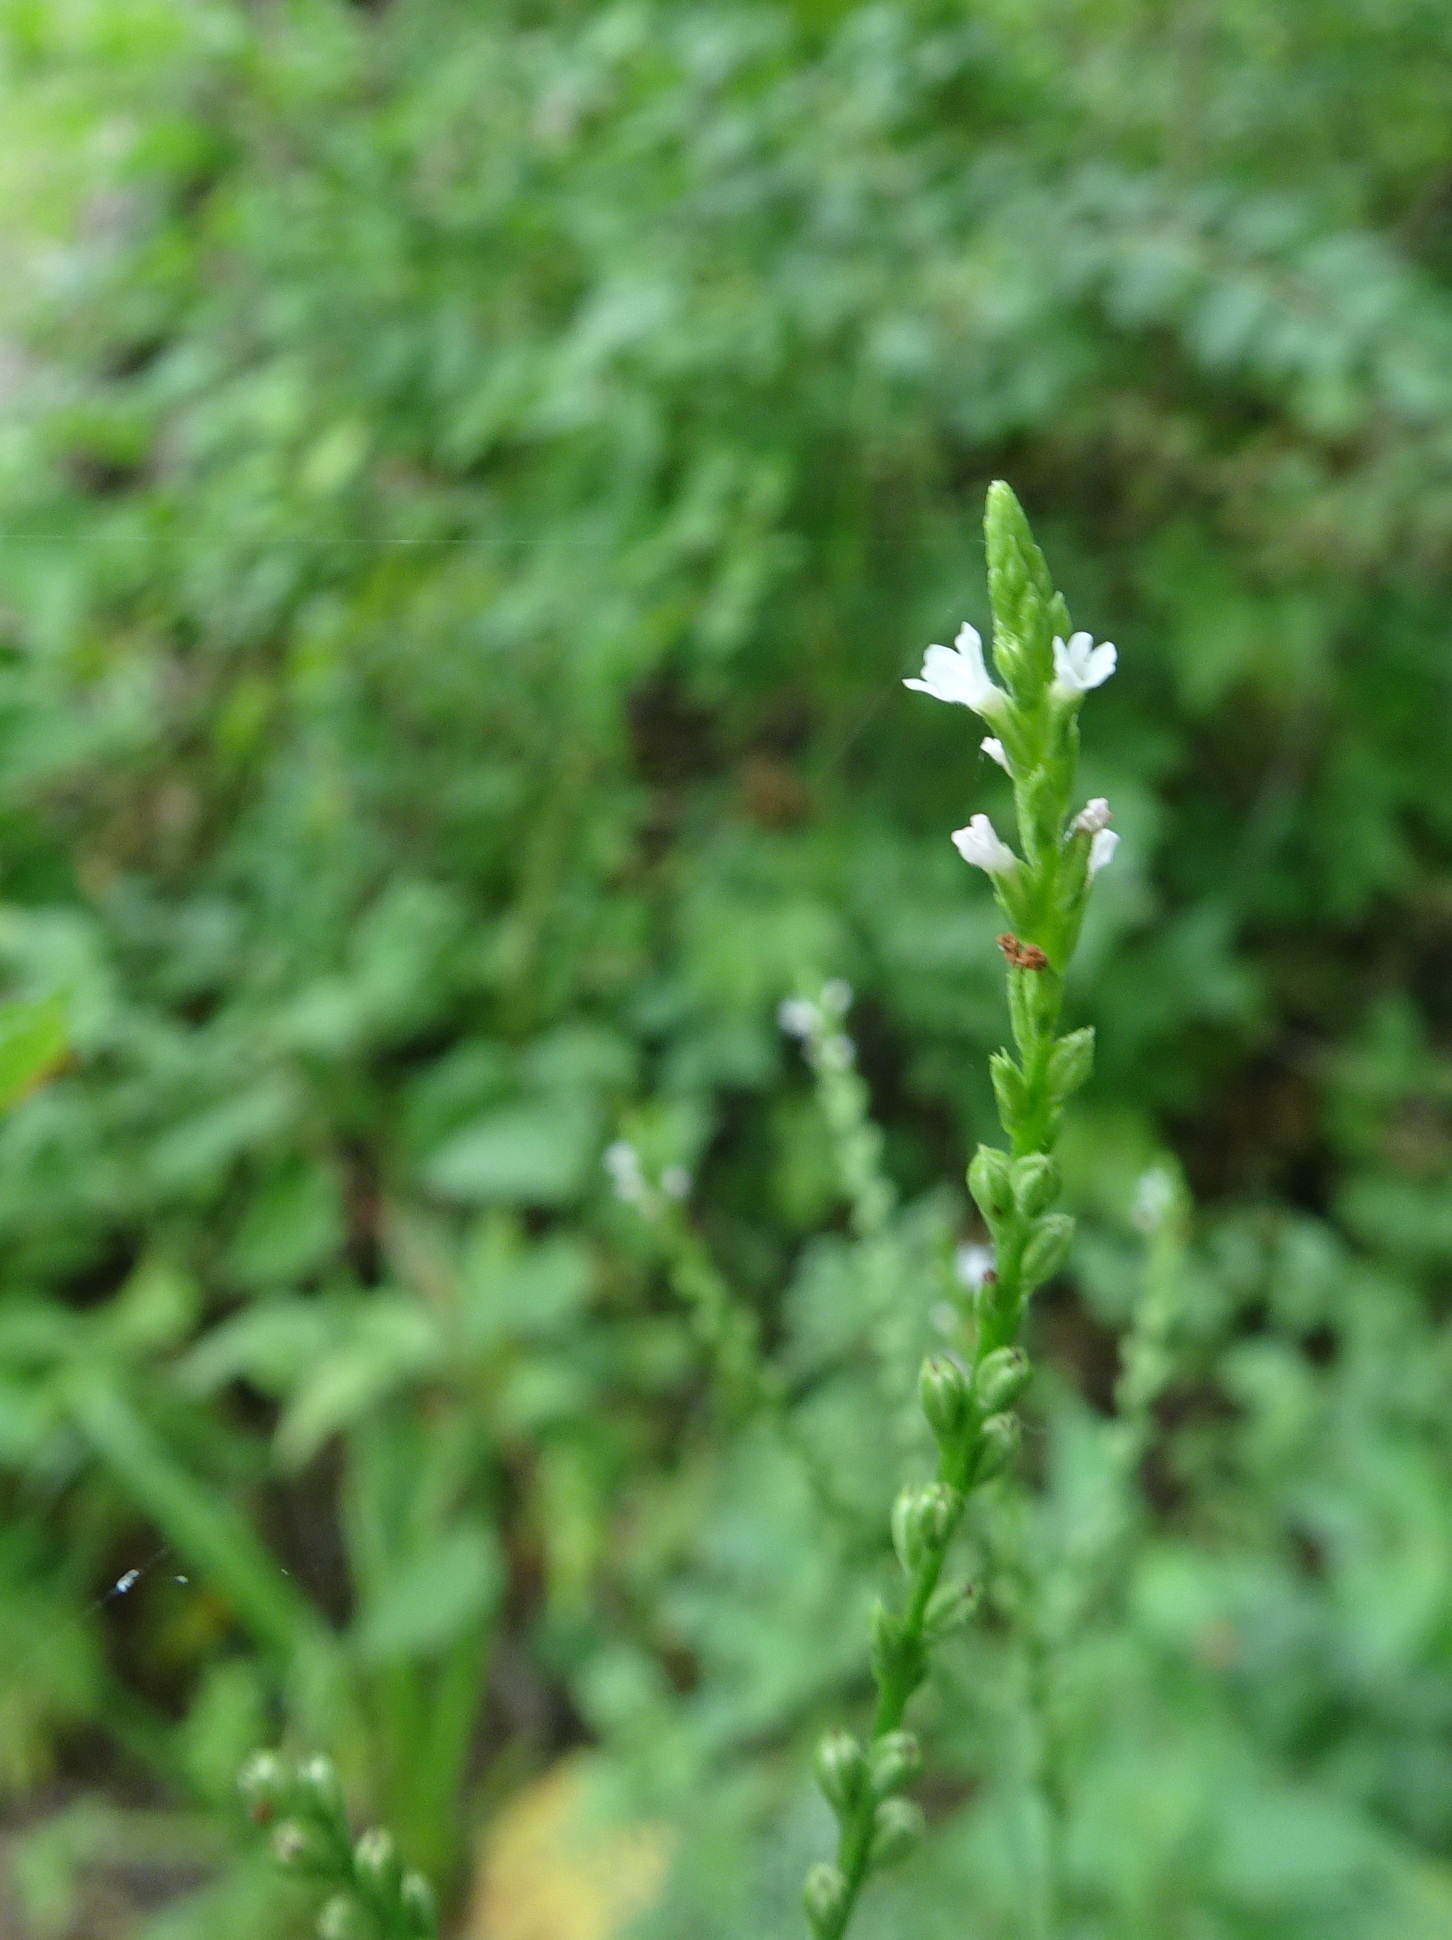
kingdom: Plantae
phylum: Tracheophyta
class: Magnoliopsida
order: Lamiales
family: Verbenaceae
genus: Verbena
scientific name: Verbena urticifolia
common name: Nettle-leaved vervain
